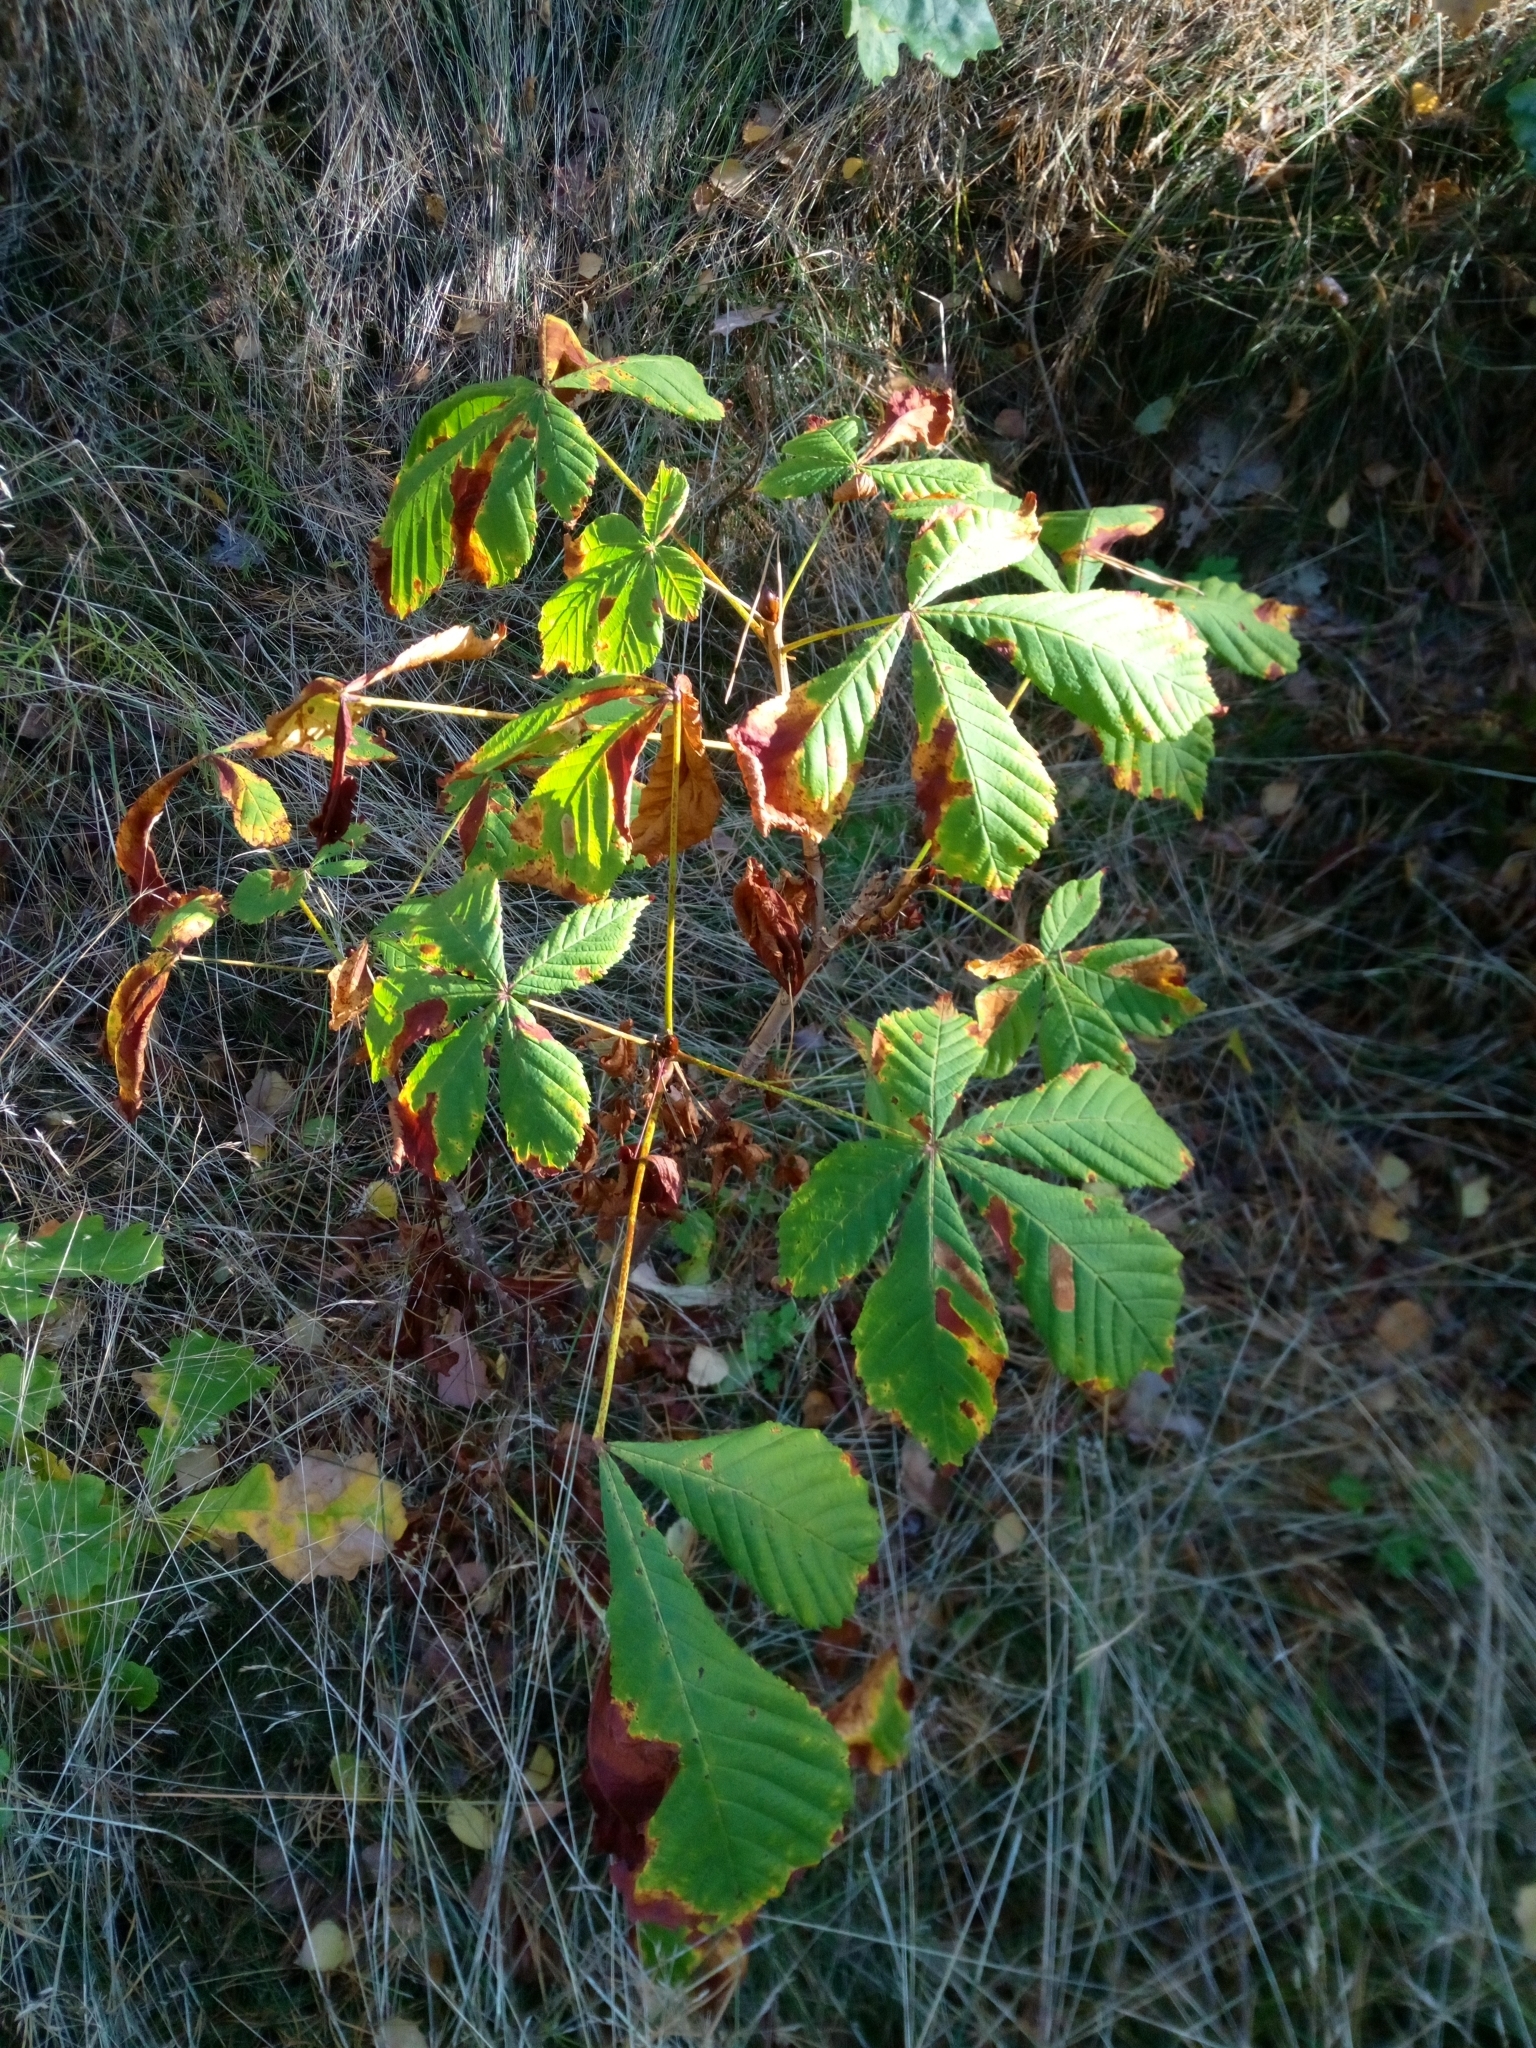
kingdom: Plantae
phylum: Tracheophyta
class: Magnoliopsida
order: Sapindales
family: Sapindaceae
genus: Aesculus
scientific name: Aesculus hippocastanum
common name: Horse-chestnut
